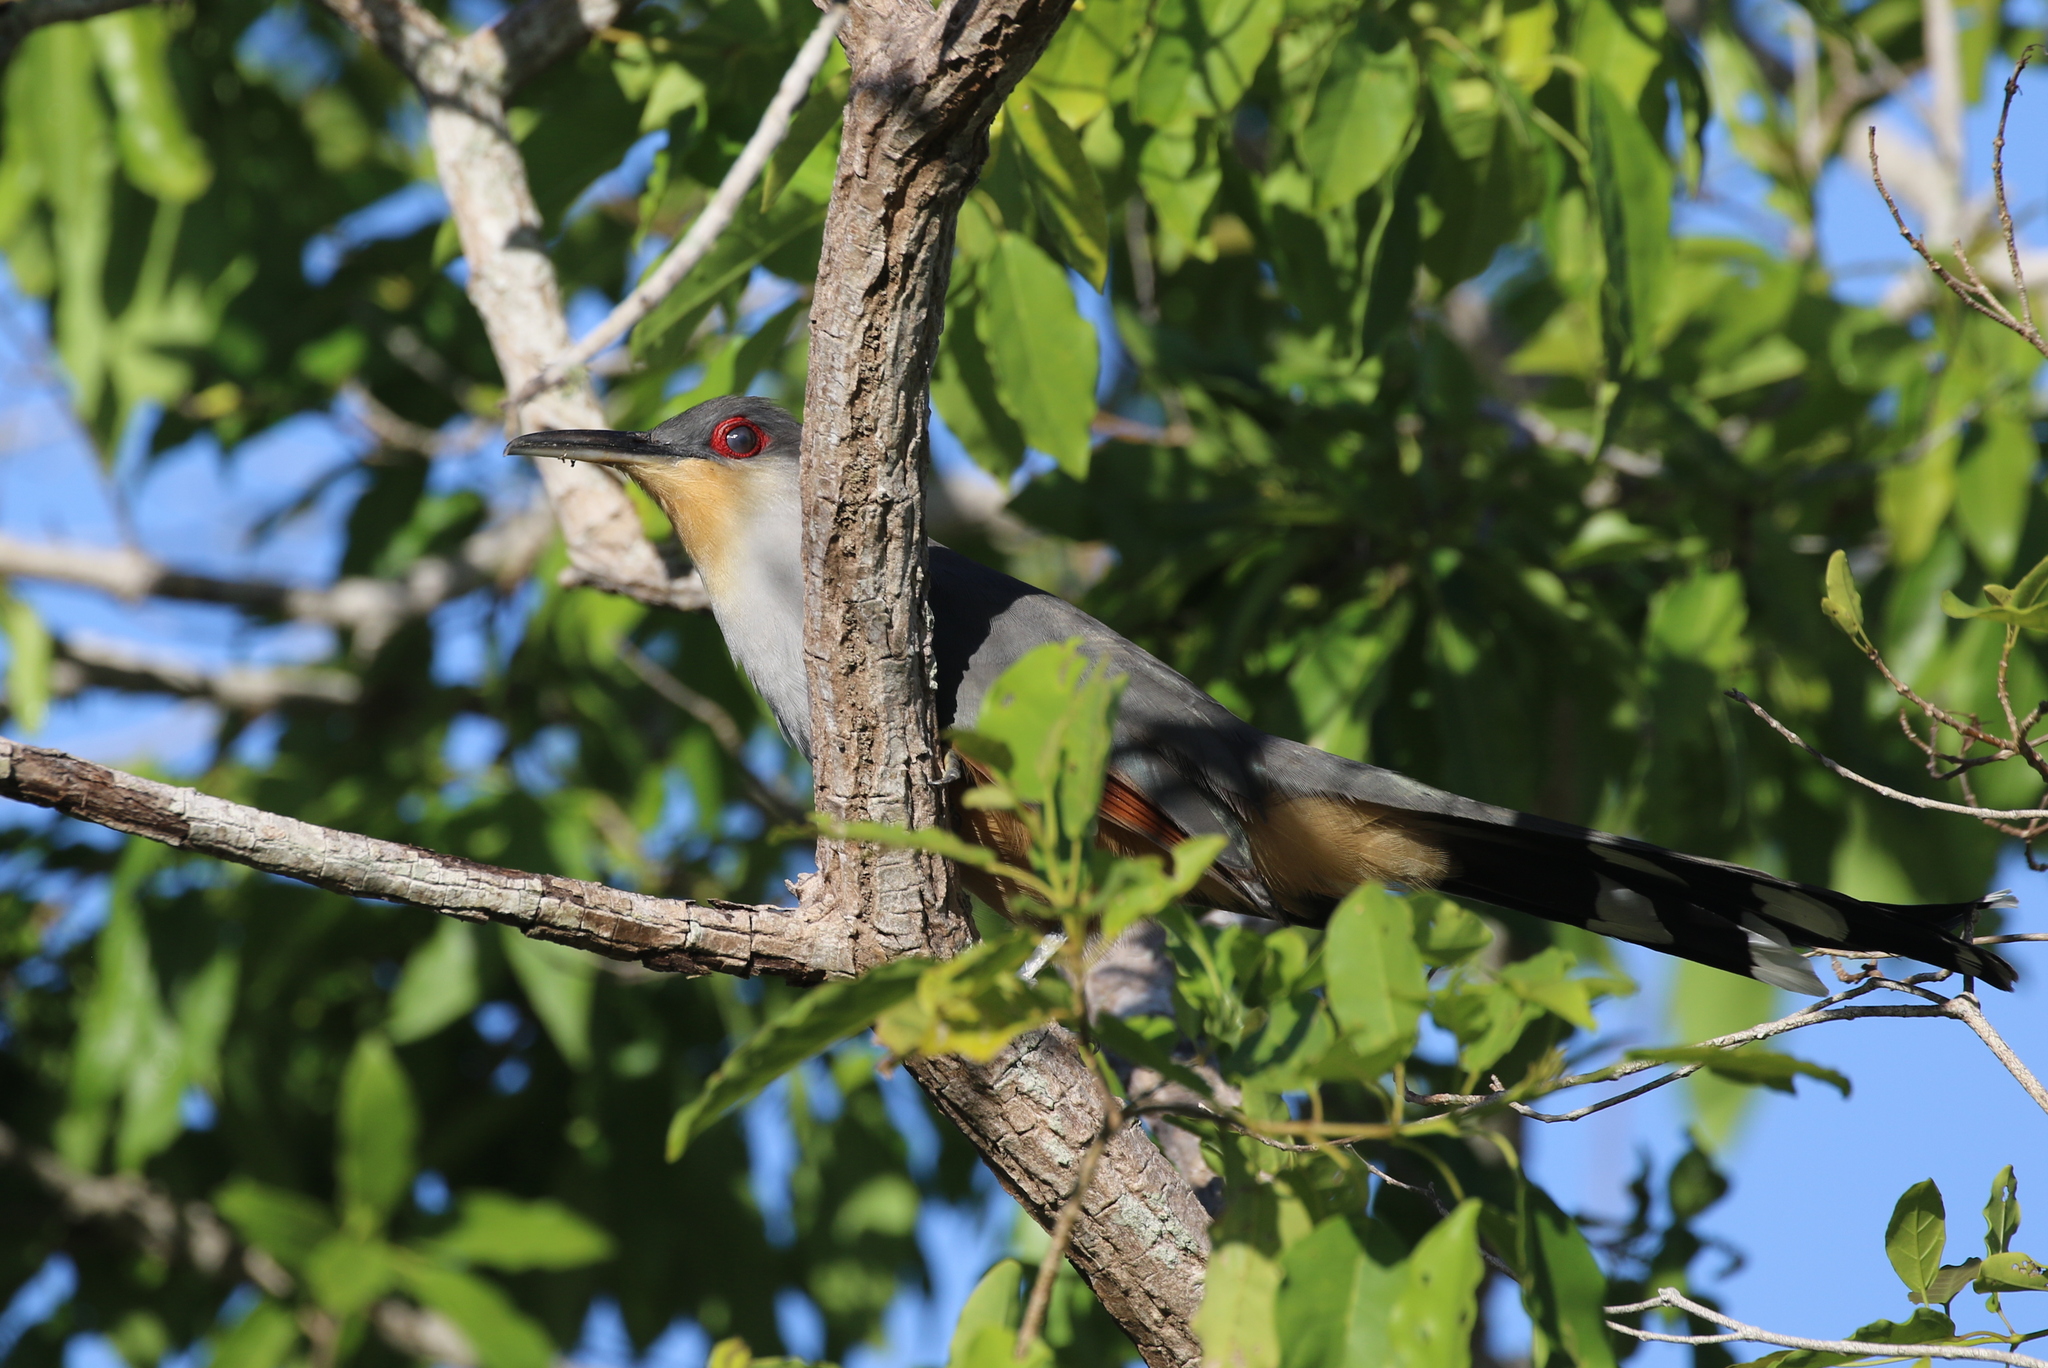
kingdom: Animalia
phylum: Chordata
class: Aves
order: Cuculiformes
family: Cuculidae
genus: Saurothera
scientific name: Saurothera longirostris
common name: Hispaniolan lizard-cuckoo
